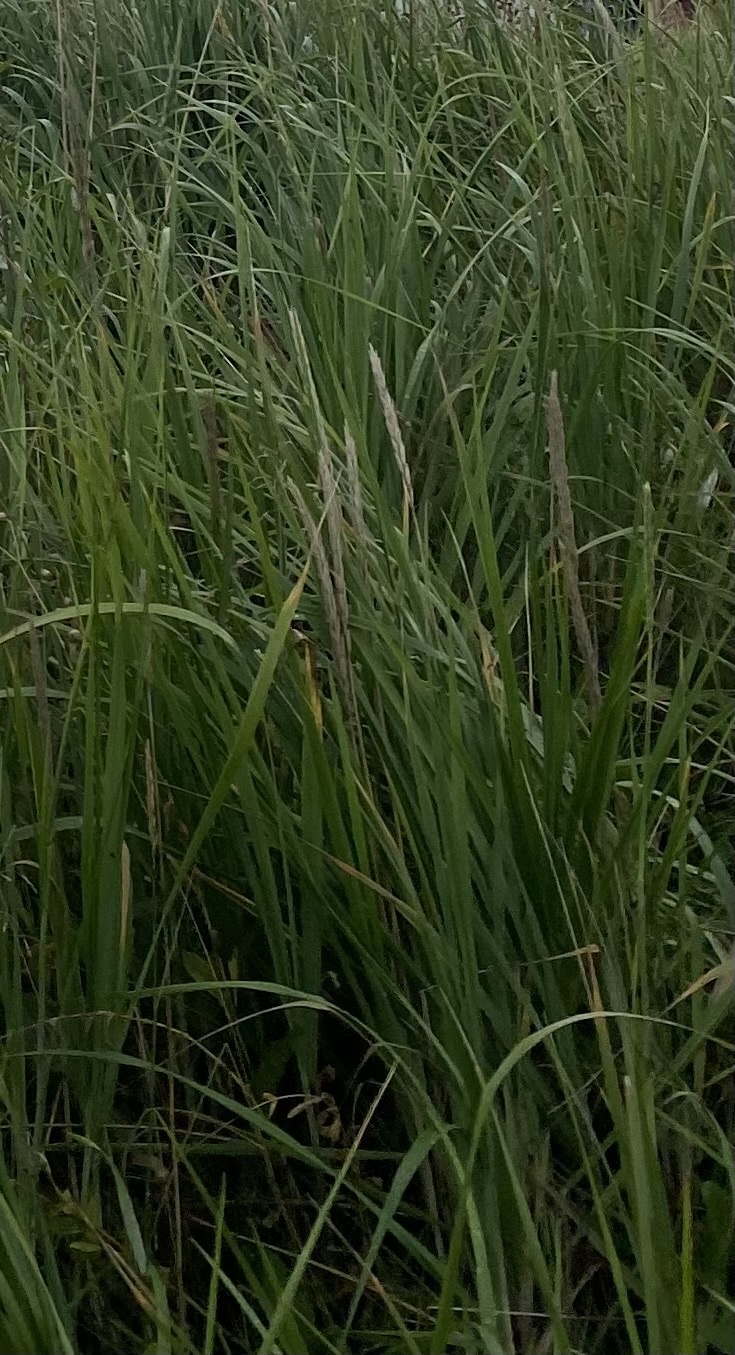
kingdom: Plantae
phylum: Tracheophyta
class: Liliopsida
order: Poales
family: Poaceae
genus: Leymus
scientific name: Leymus mollis
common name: American dune grass
